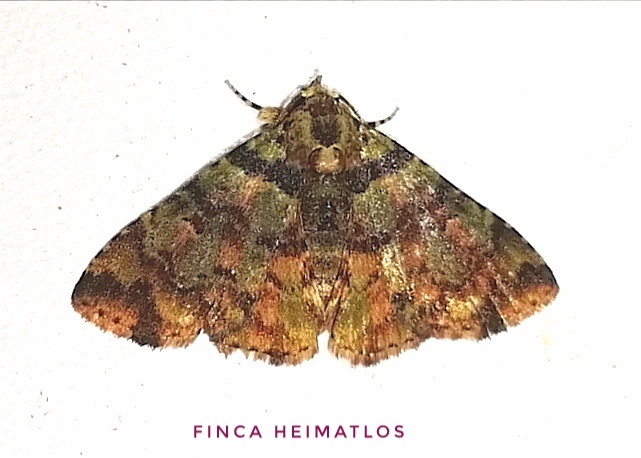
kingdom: Animalia
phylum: Arthropoda
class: Insecta
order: Lepidoptera
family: Erebidae
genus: Metalectra
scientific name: Metalectra picta
